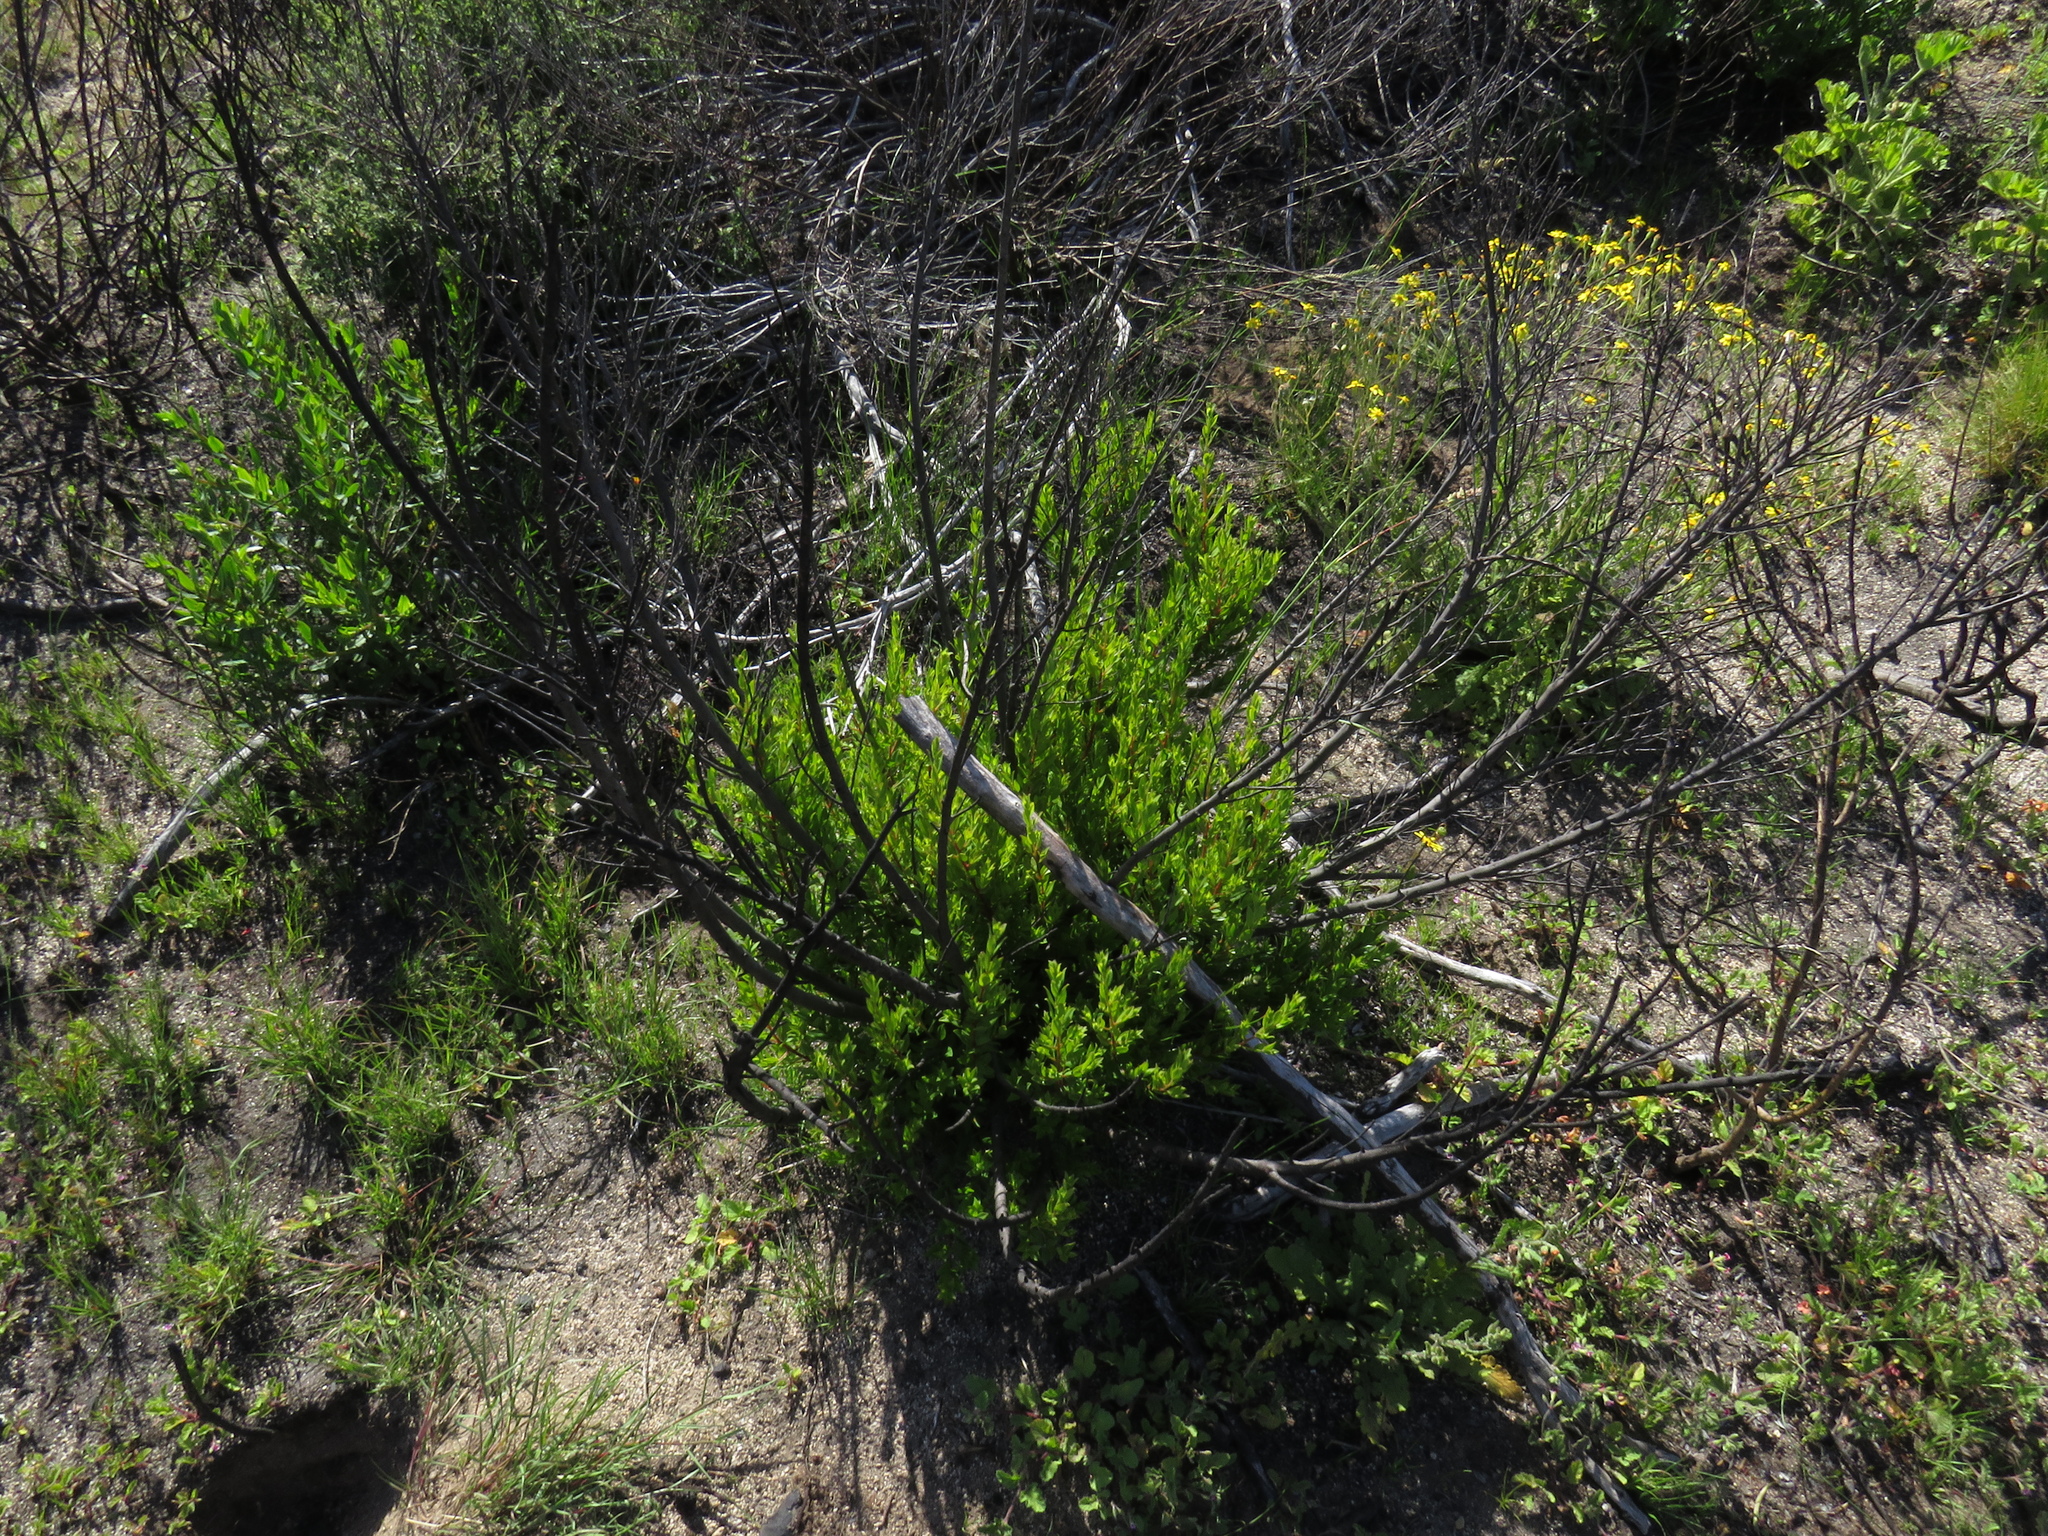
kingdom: Plantae
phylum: Tracheophyta
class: Magnoliopsida
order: Boraginales
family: Boraginaceae
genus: Lobostemon
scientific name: Lobostemon glaucophyllus
